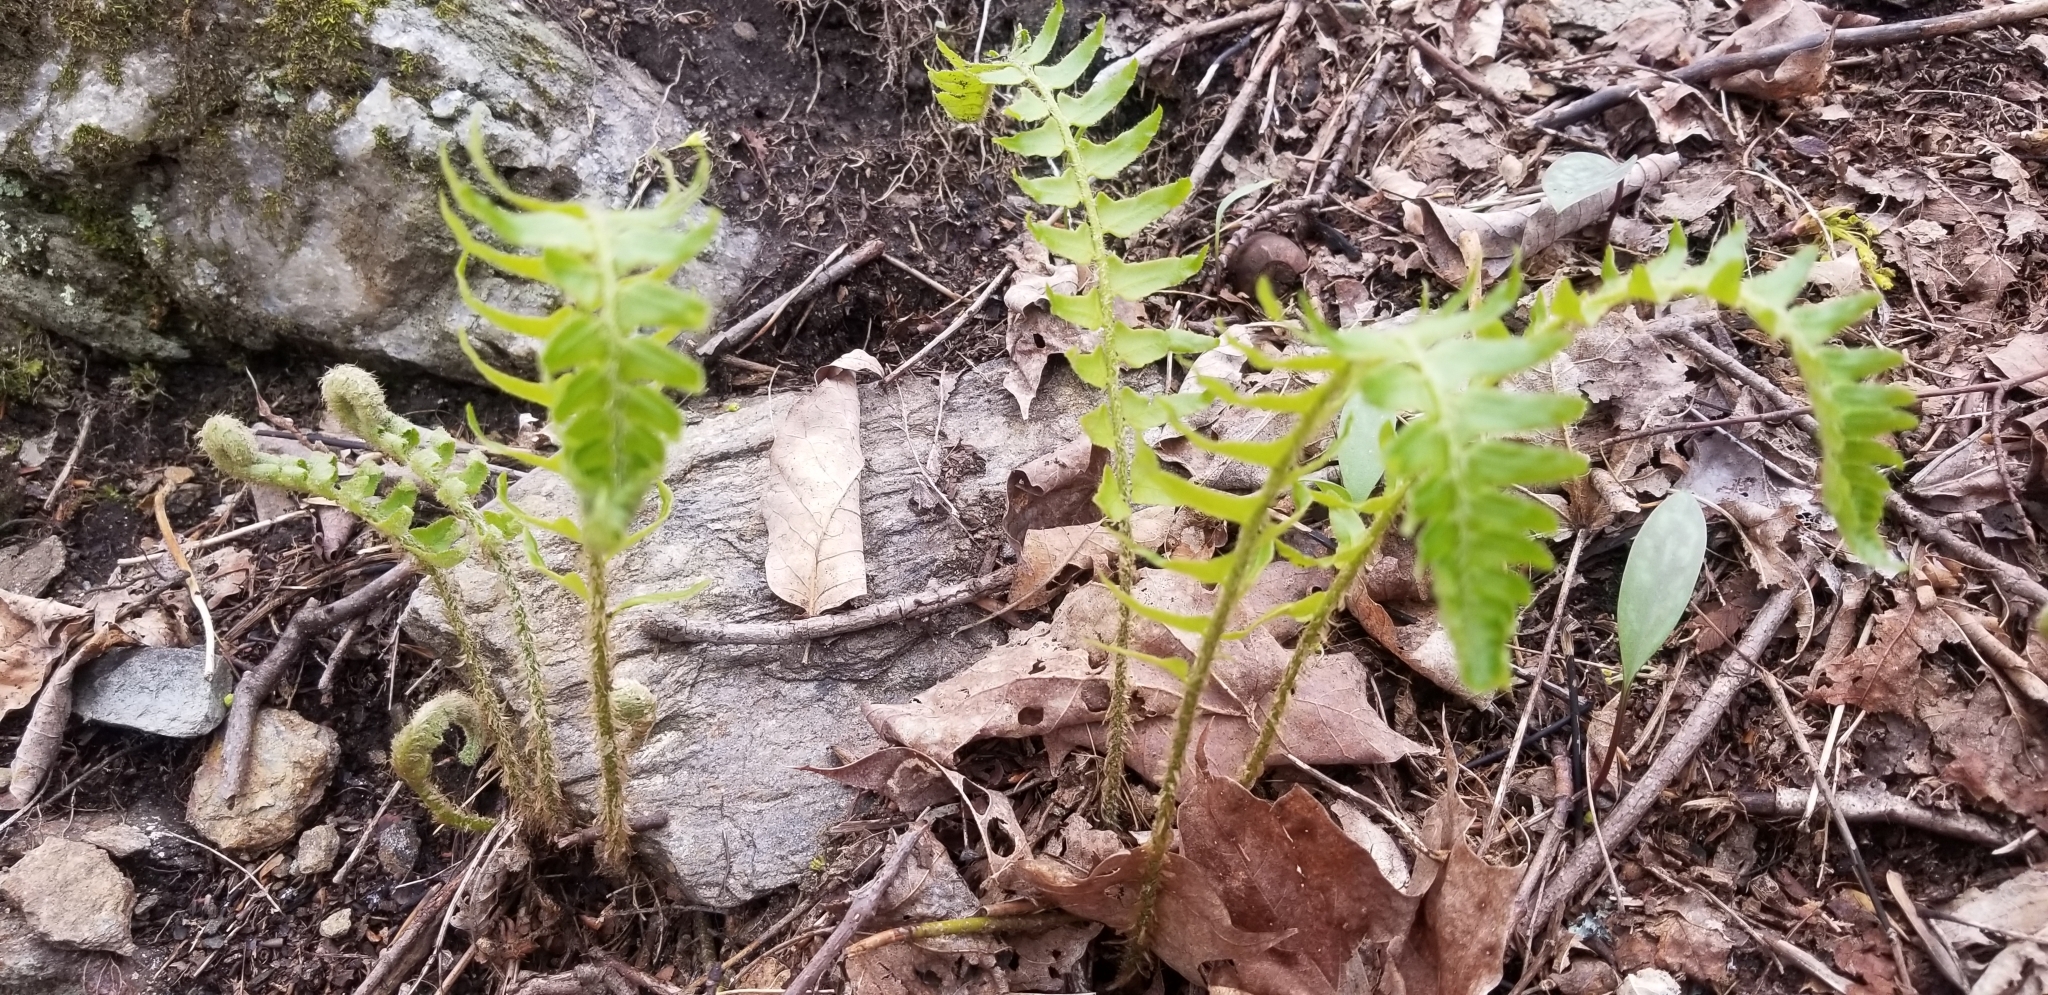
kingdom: Plantae
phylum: Tracheophyta
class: Polypodiopsida
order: Polypodiales
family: Dryopteridaceae
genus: Polystichum
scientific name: Polystichum acrostichoides
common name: Christmas fern
